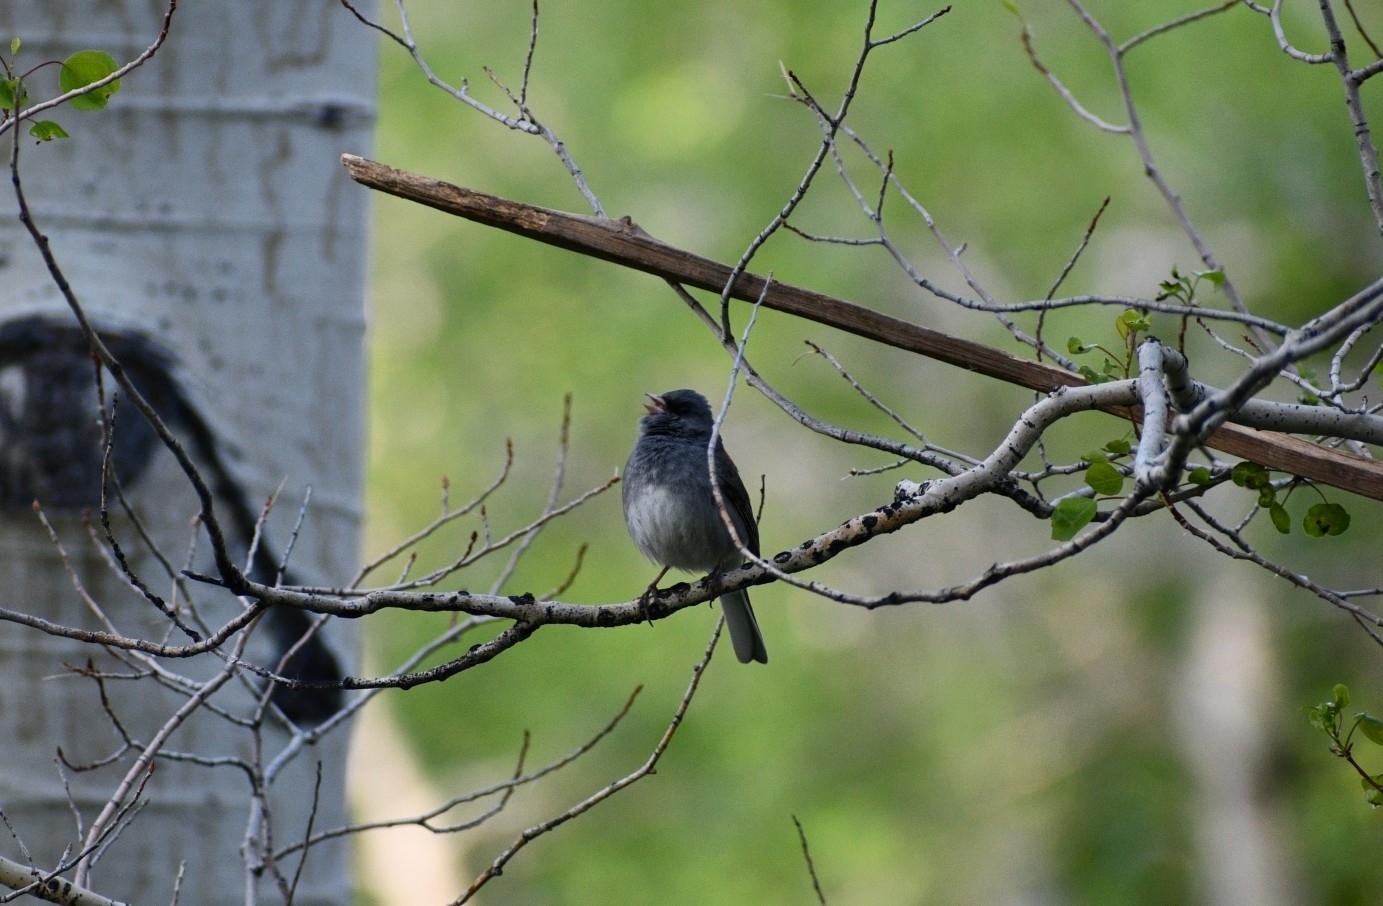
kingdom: Animalia
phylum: Chordata
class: Aves
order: Passeriformes
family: Passerellidae
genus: Junco
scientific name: Junco hyemalis
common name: Dark-eyed junco
